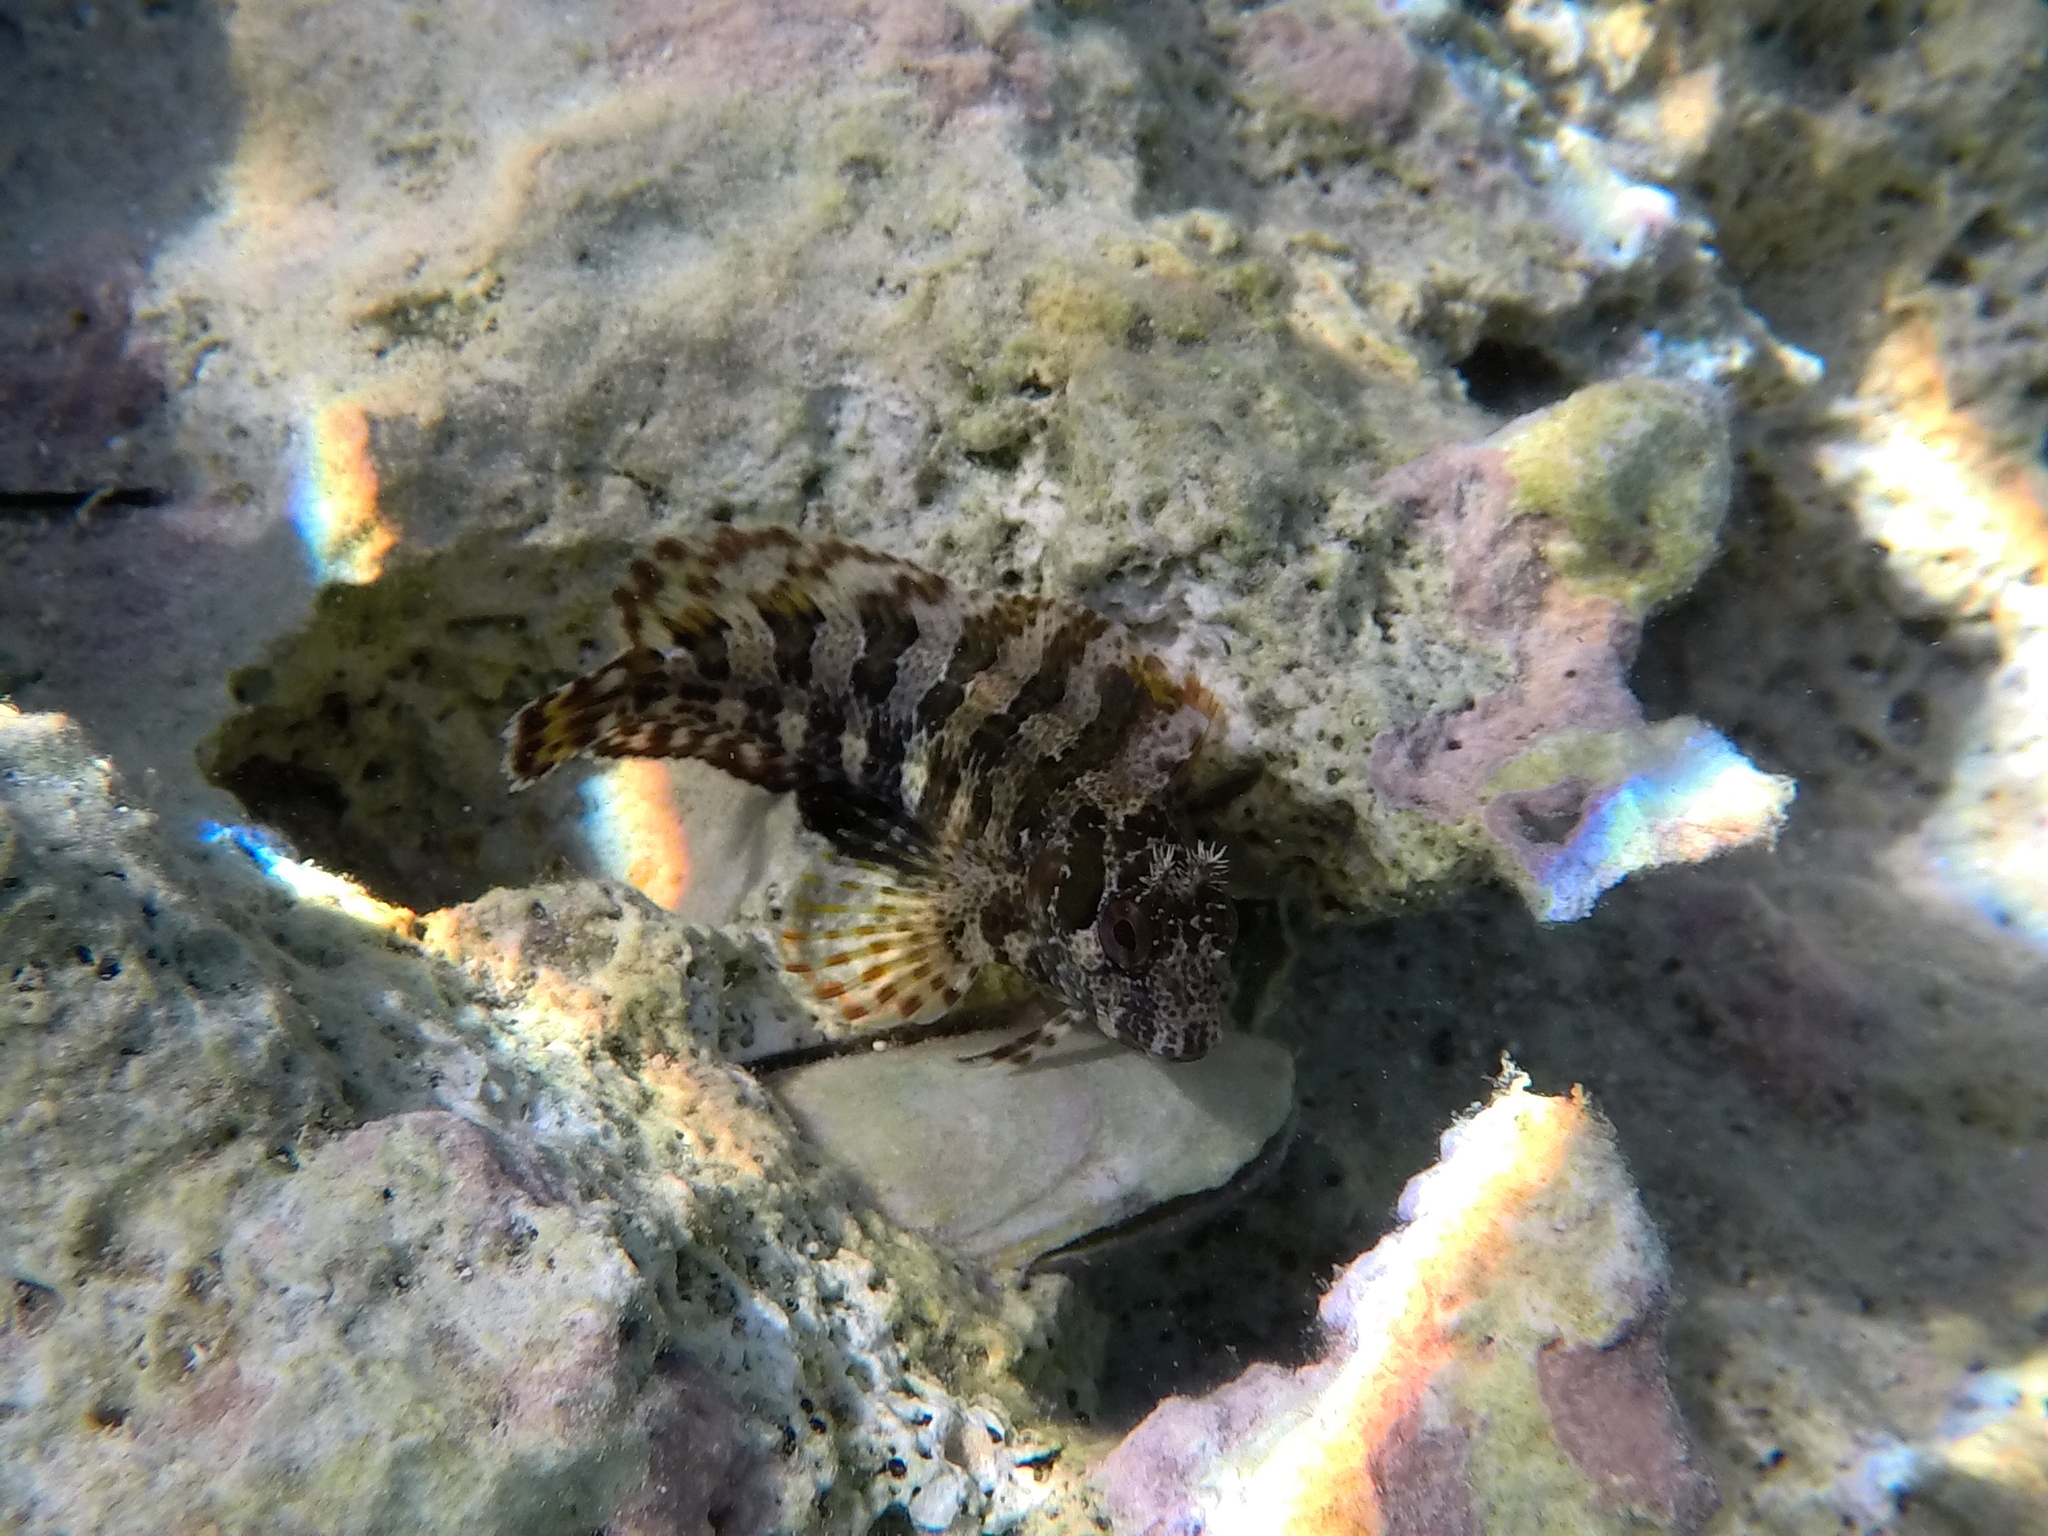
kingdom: Animalia
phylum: Chordata
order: Perciformes
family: Blenniidae
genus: Parablennius
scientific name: Parablennius gattorugine
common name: Tompot blenny
